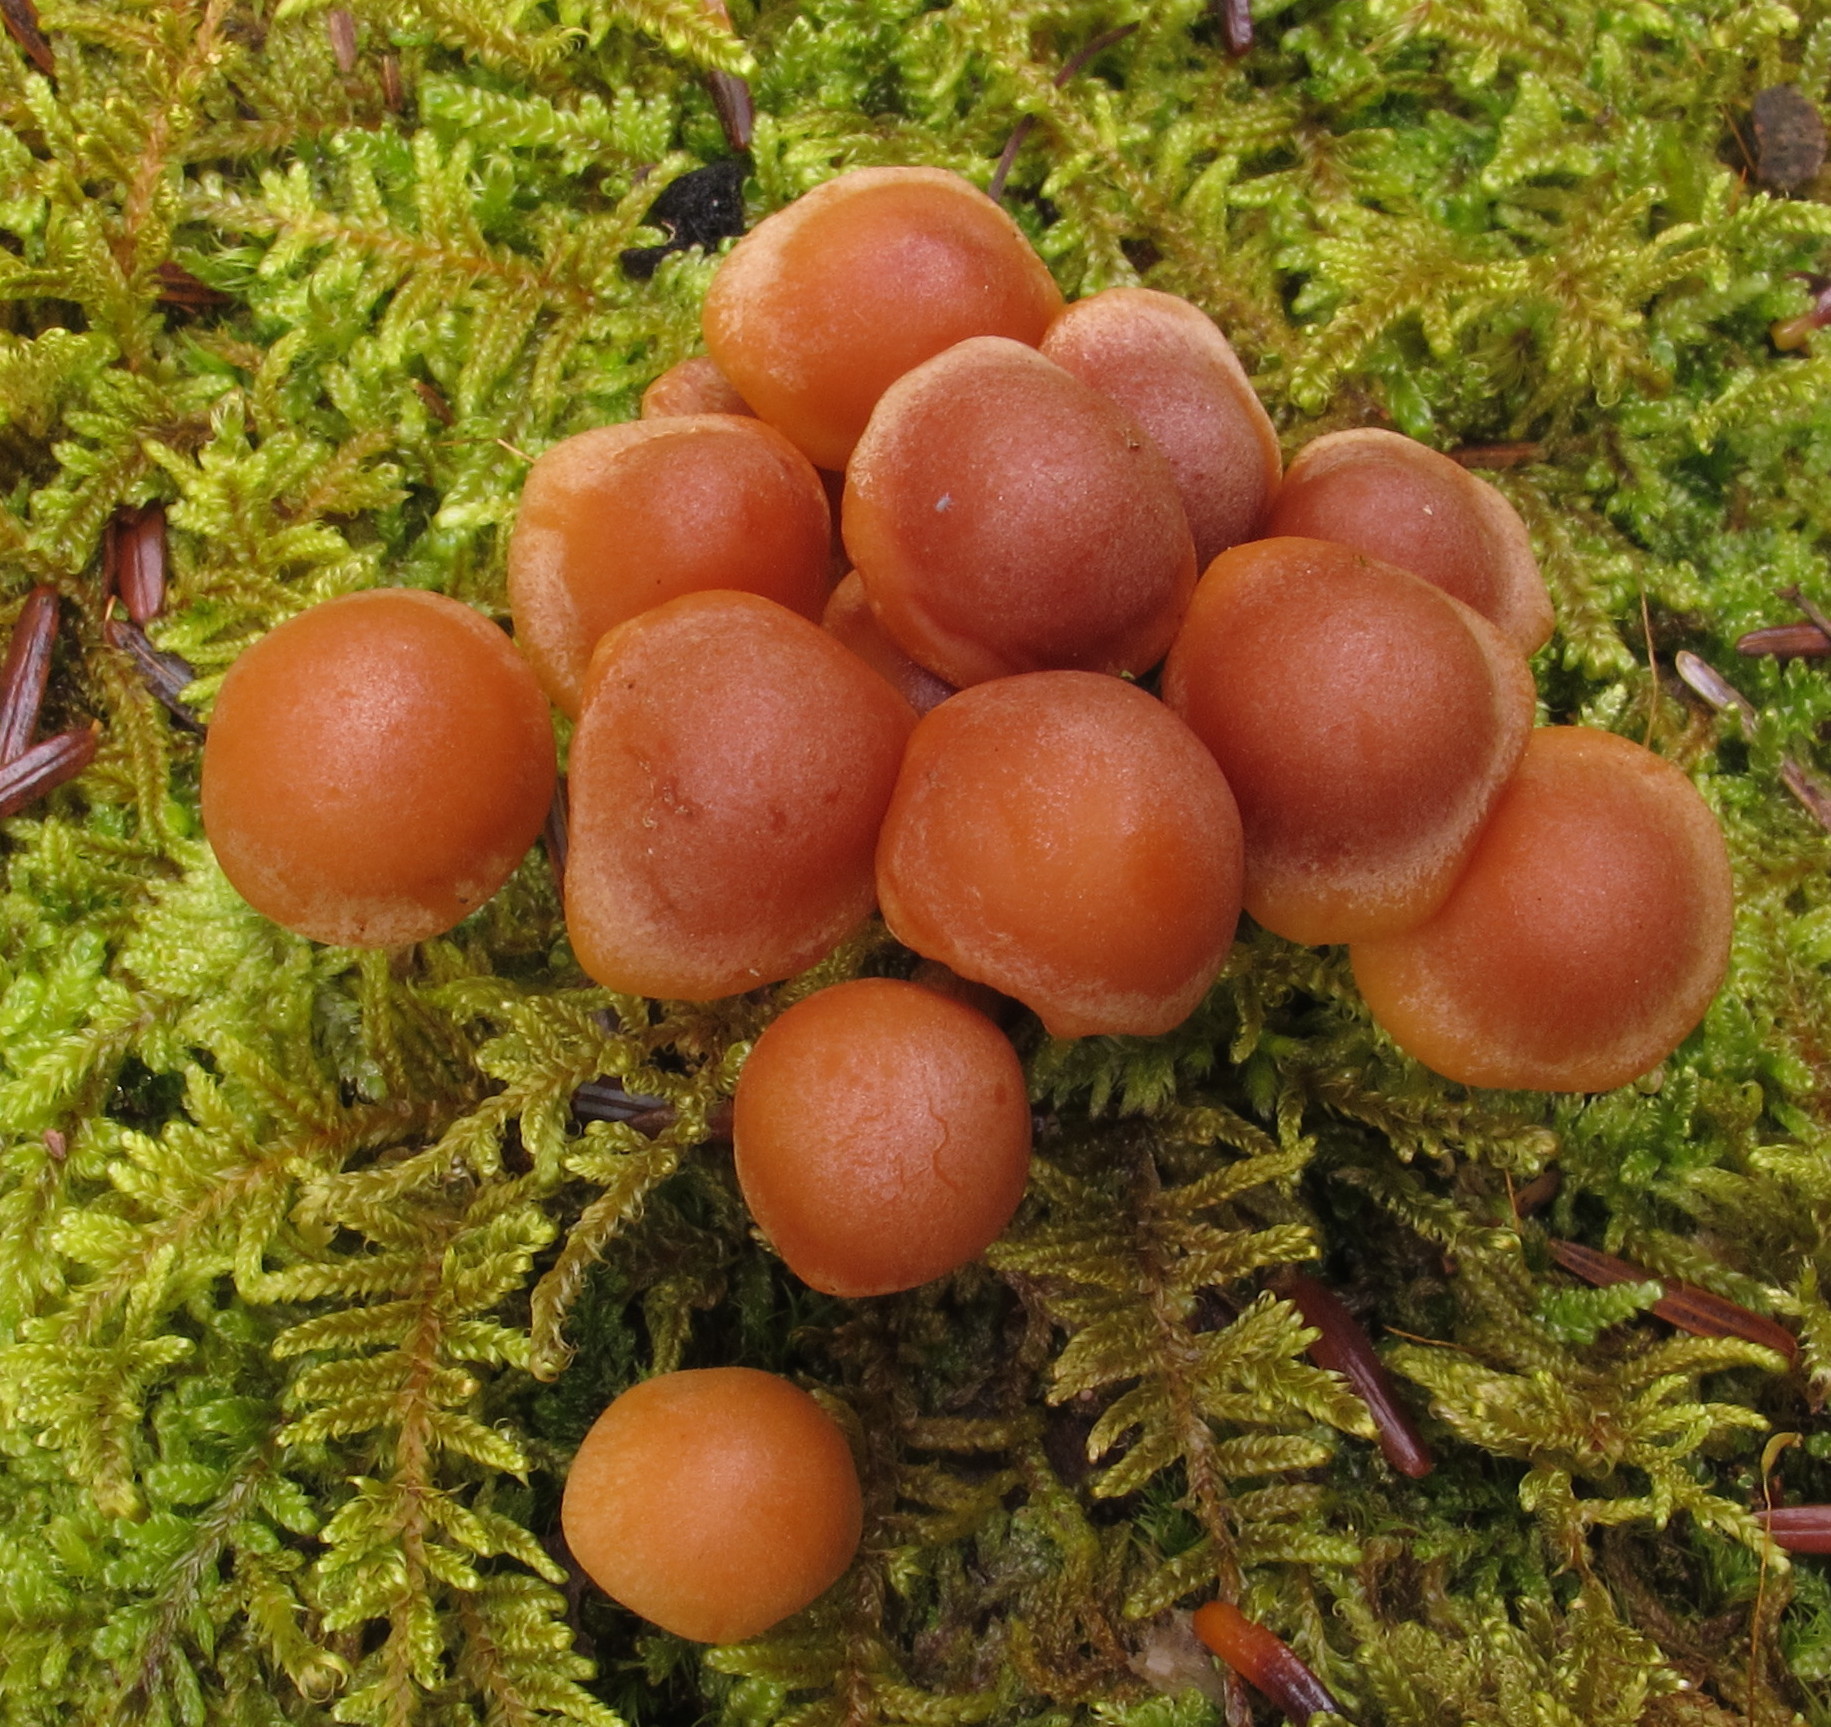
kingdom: Fungi
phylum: Basidiomycota
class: Agaricomycetes
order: Agaricales
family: Strophariaceae
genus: Hypholoma
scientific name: Hypholoma capnoides
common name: Conifer tuft
